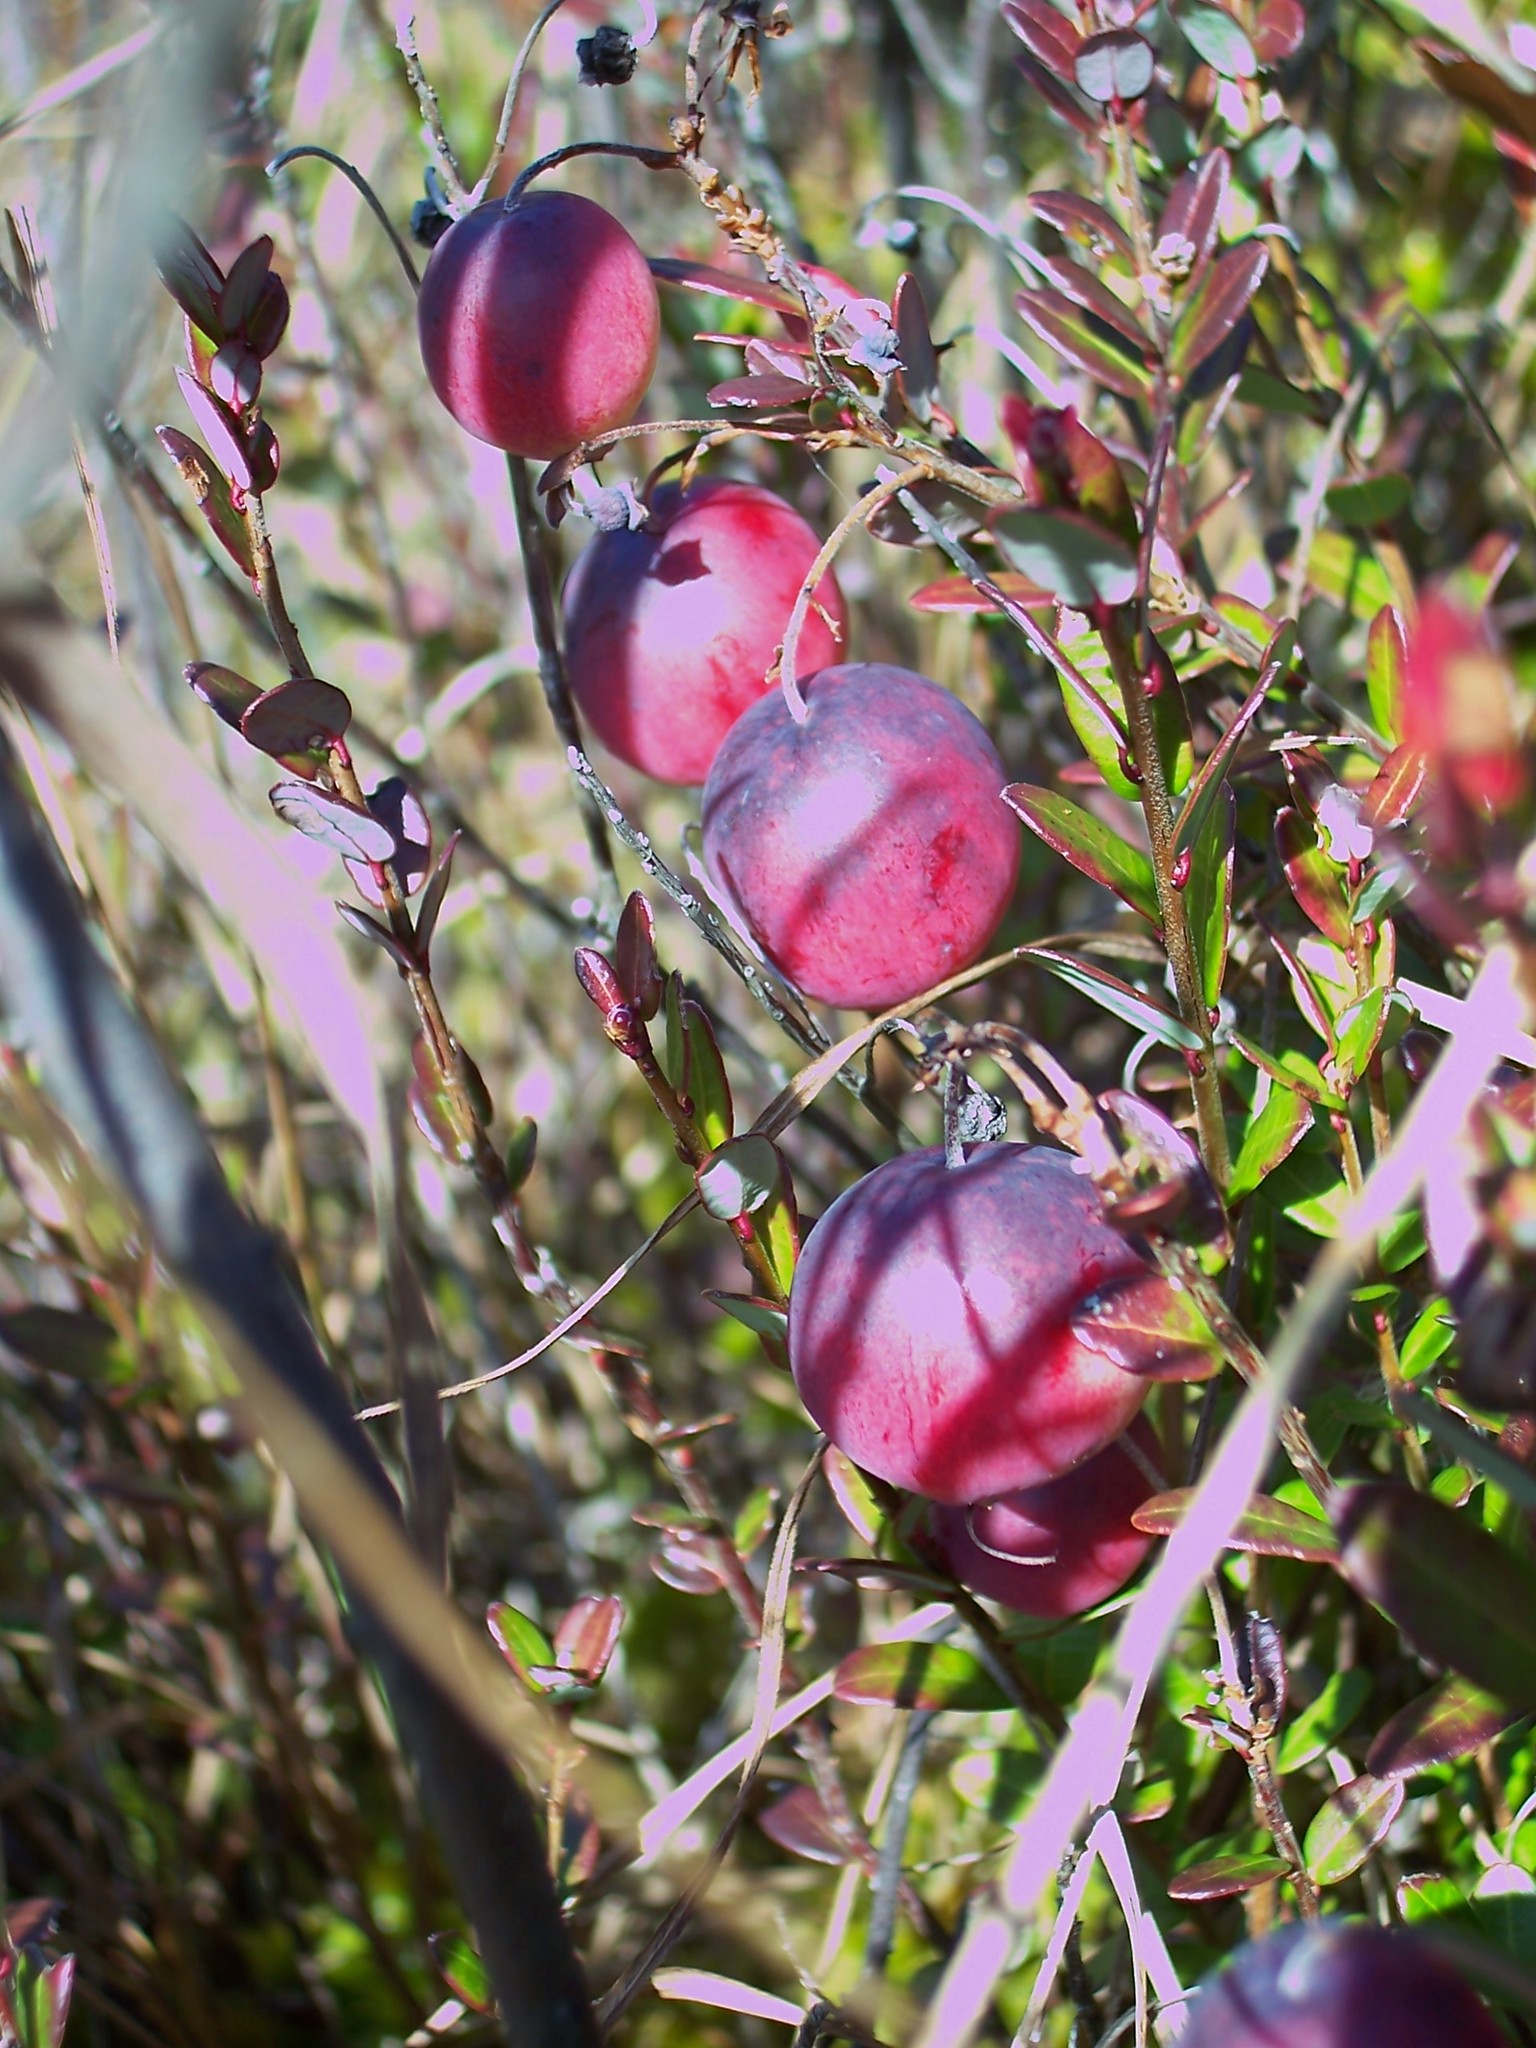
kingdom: Plantae
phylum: Tracheophyta
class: Magnoliopsida
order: Ericales
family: Ericaceae
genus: Vaccinium
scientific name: Vaccinium macrocarpon
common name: American cranberry
